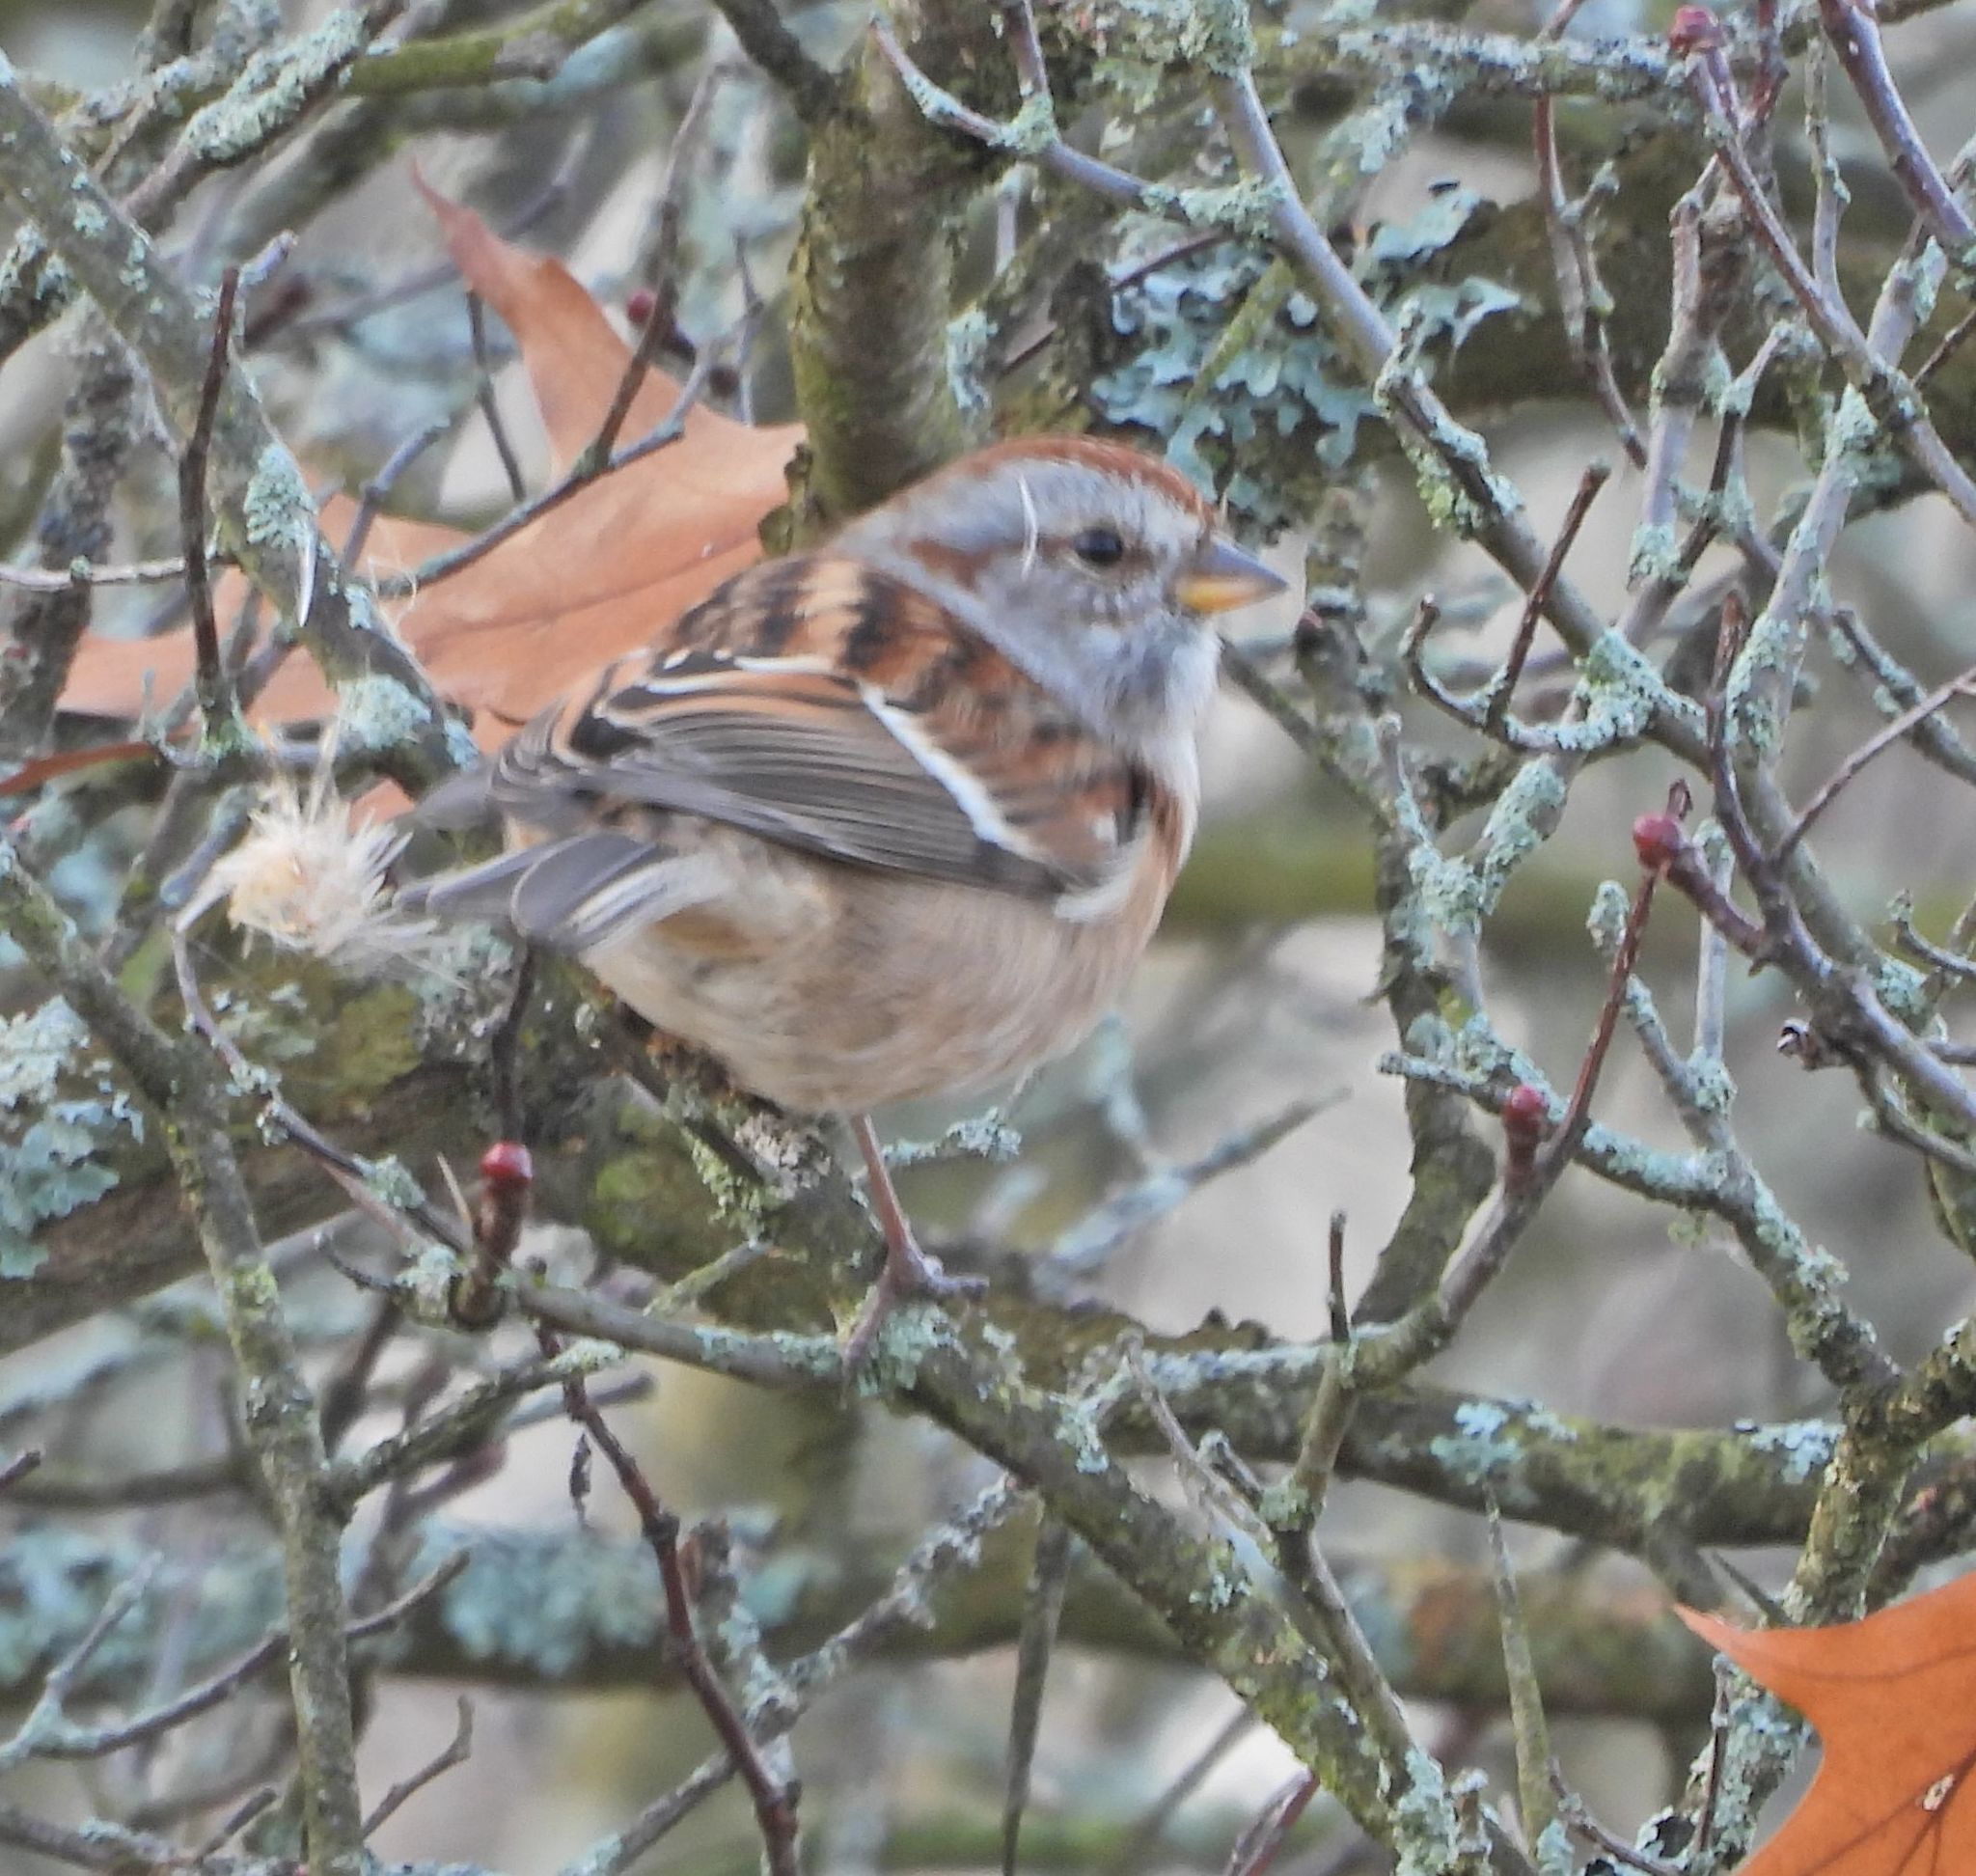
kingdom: Animalia
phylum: Chordata
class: Aves
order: Passeriformes
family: Passerellidae
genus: Spizelloides
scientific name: Spizelloides arborea
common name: American tree sparrow
